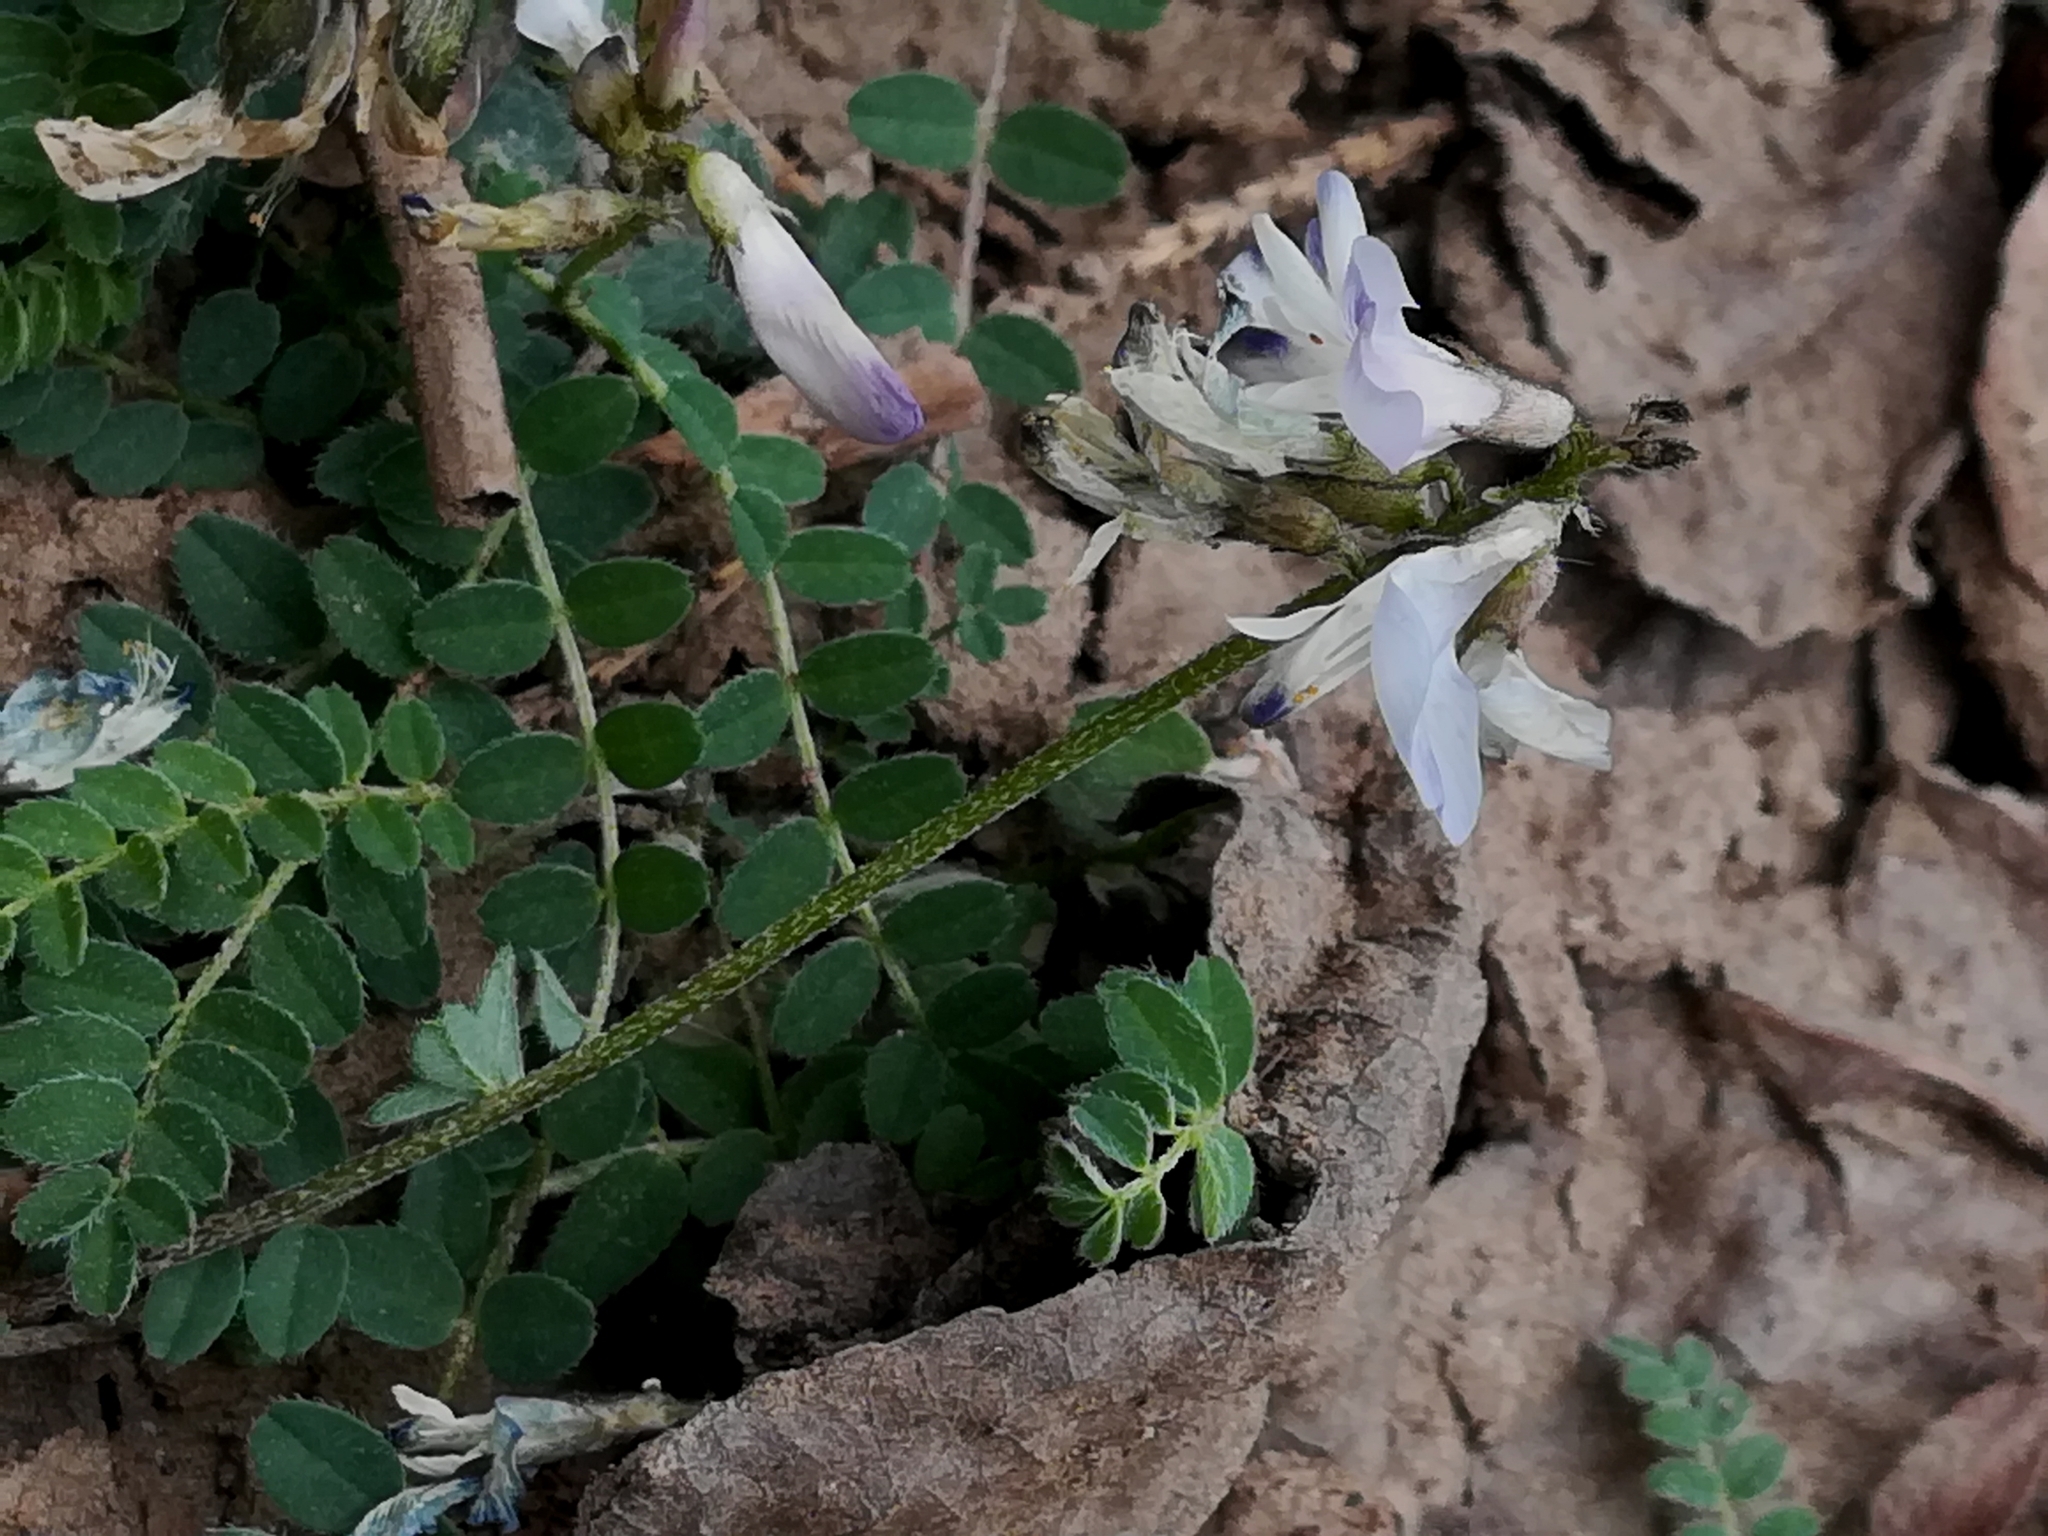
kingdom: Plantae
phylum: Tracheophyta
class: Magnoliopsida
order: Fabales
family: Fabaceae
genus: Astragalus
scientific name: Astragalus alpinus
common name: Alpine milk-vetch
